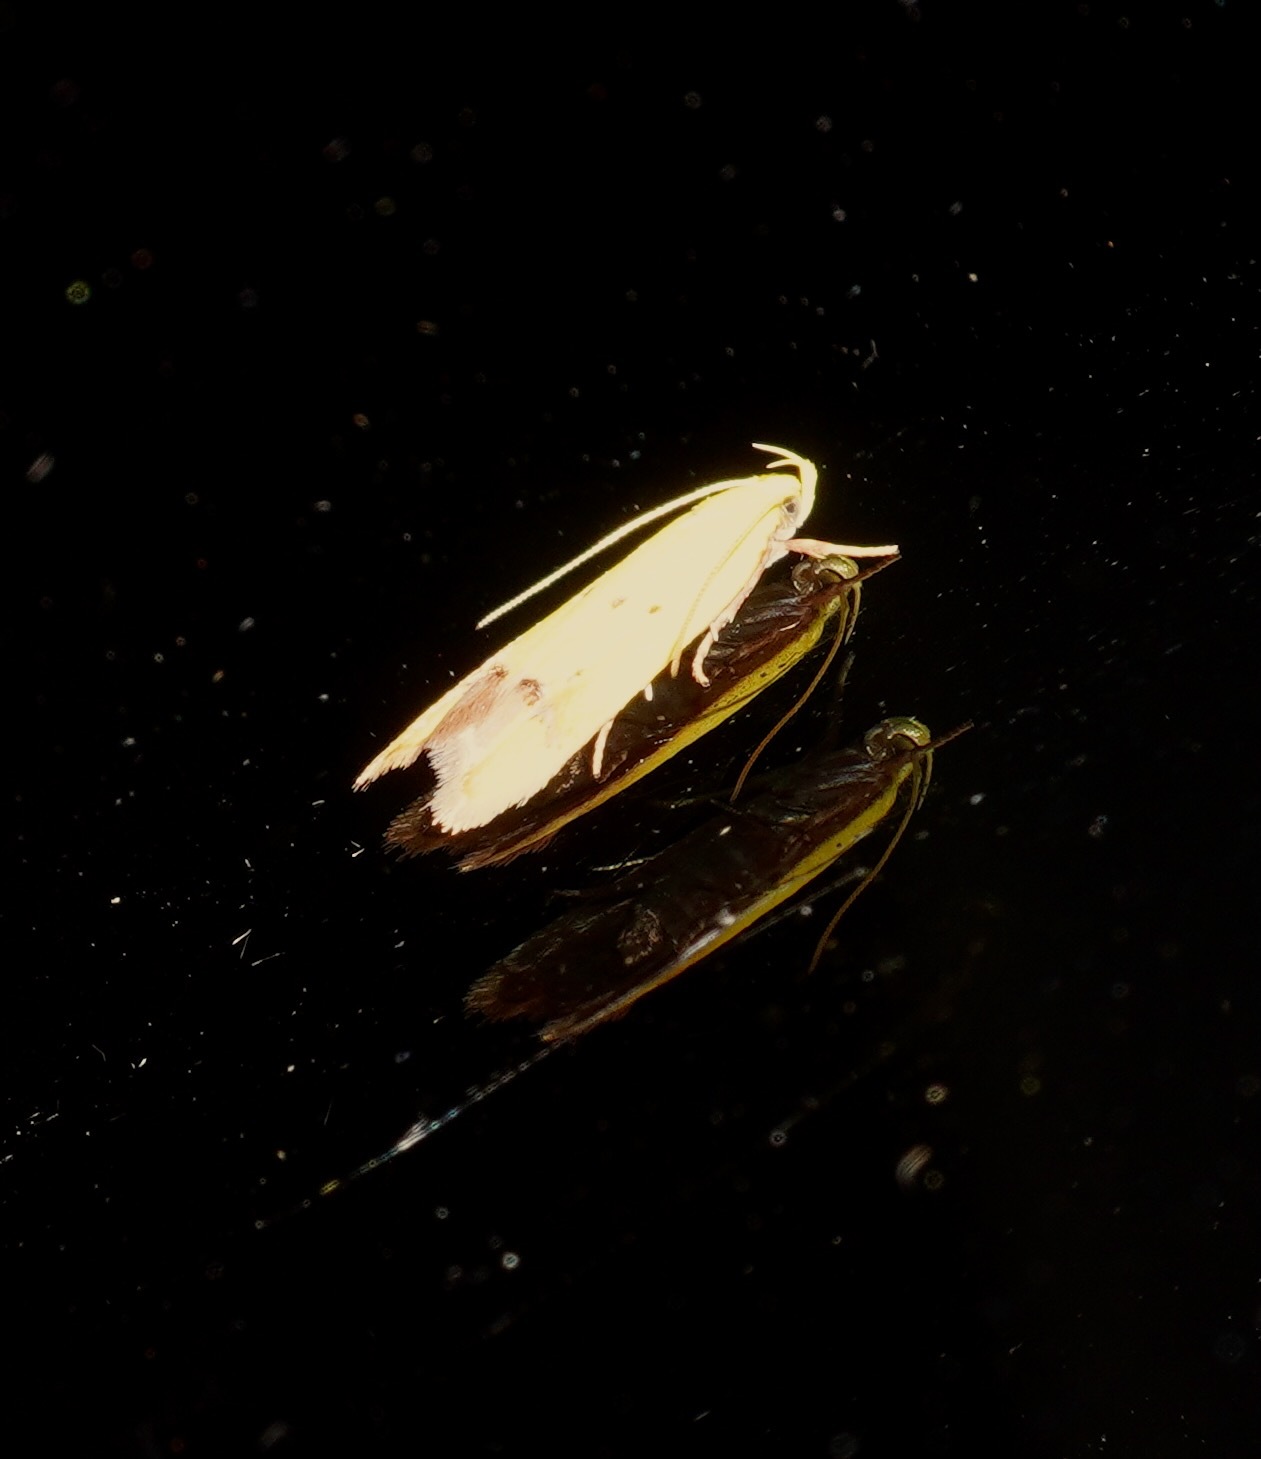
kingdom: Animalia
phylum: Arthropoda
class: Insecta
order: Lepidoptera
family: Oecophoridae
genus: Gymnobathra
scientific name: Gymnobathra flavidella
